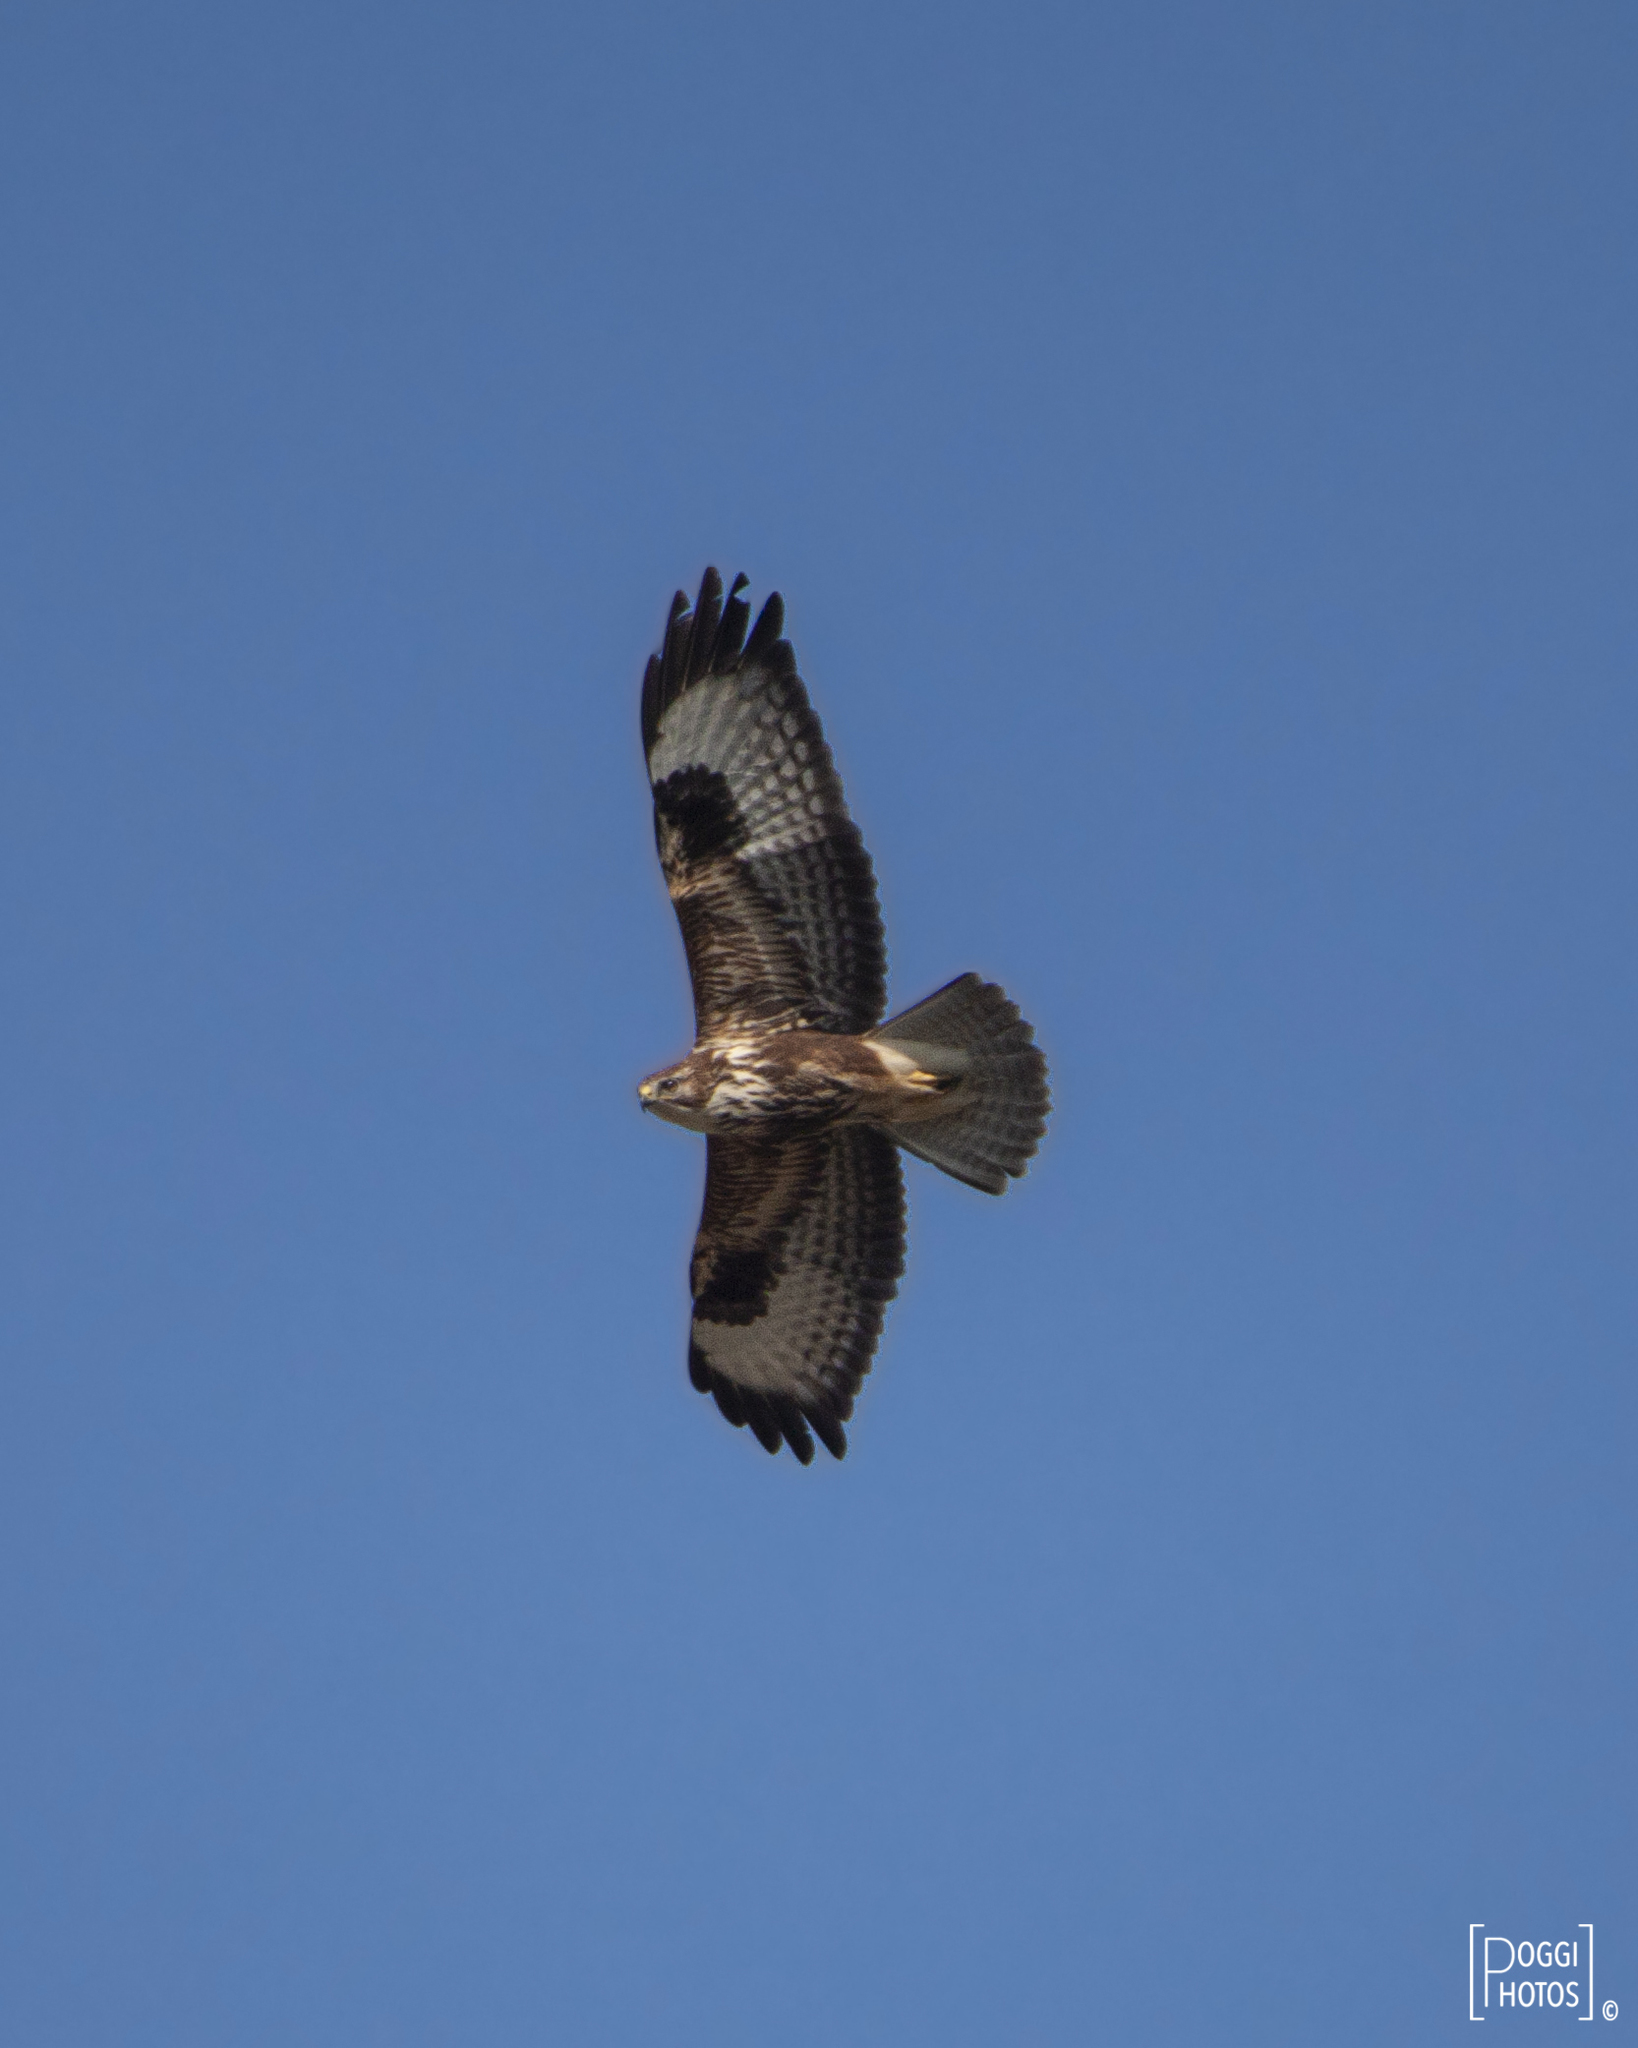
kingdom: Animalia
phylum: Chordata
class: Aves
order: Accipitriformes
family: Accipitridae
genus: Buteo
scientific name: Buteo buteo
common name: Common buzzard
